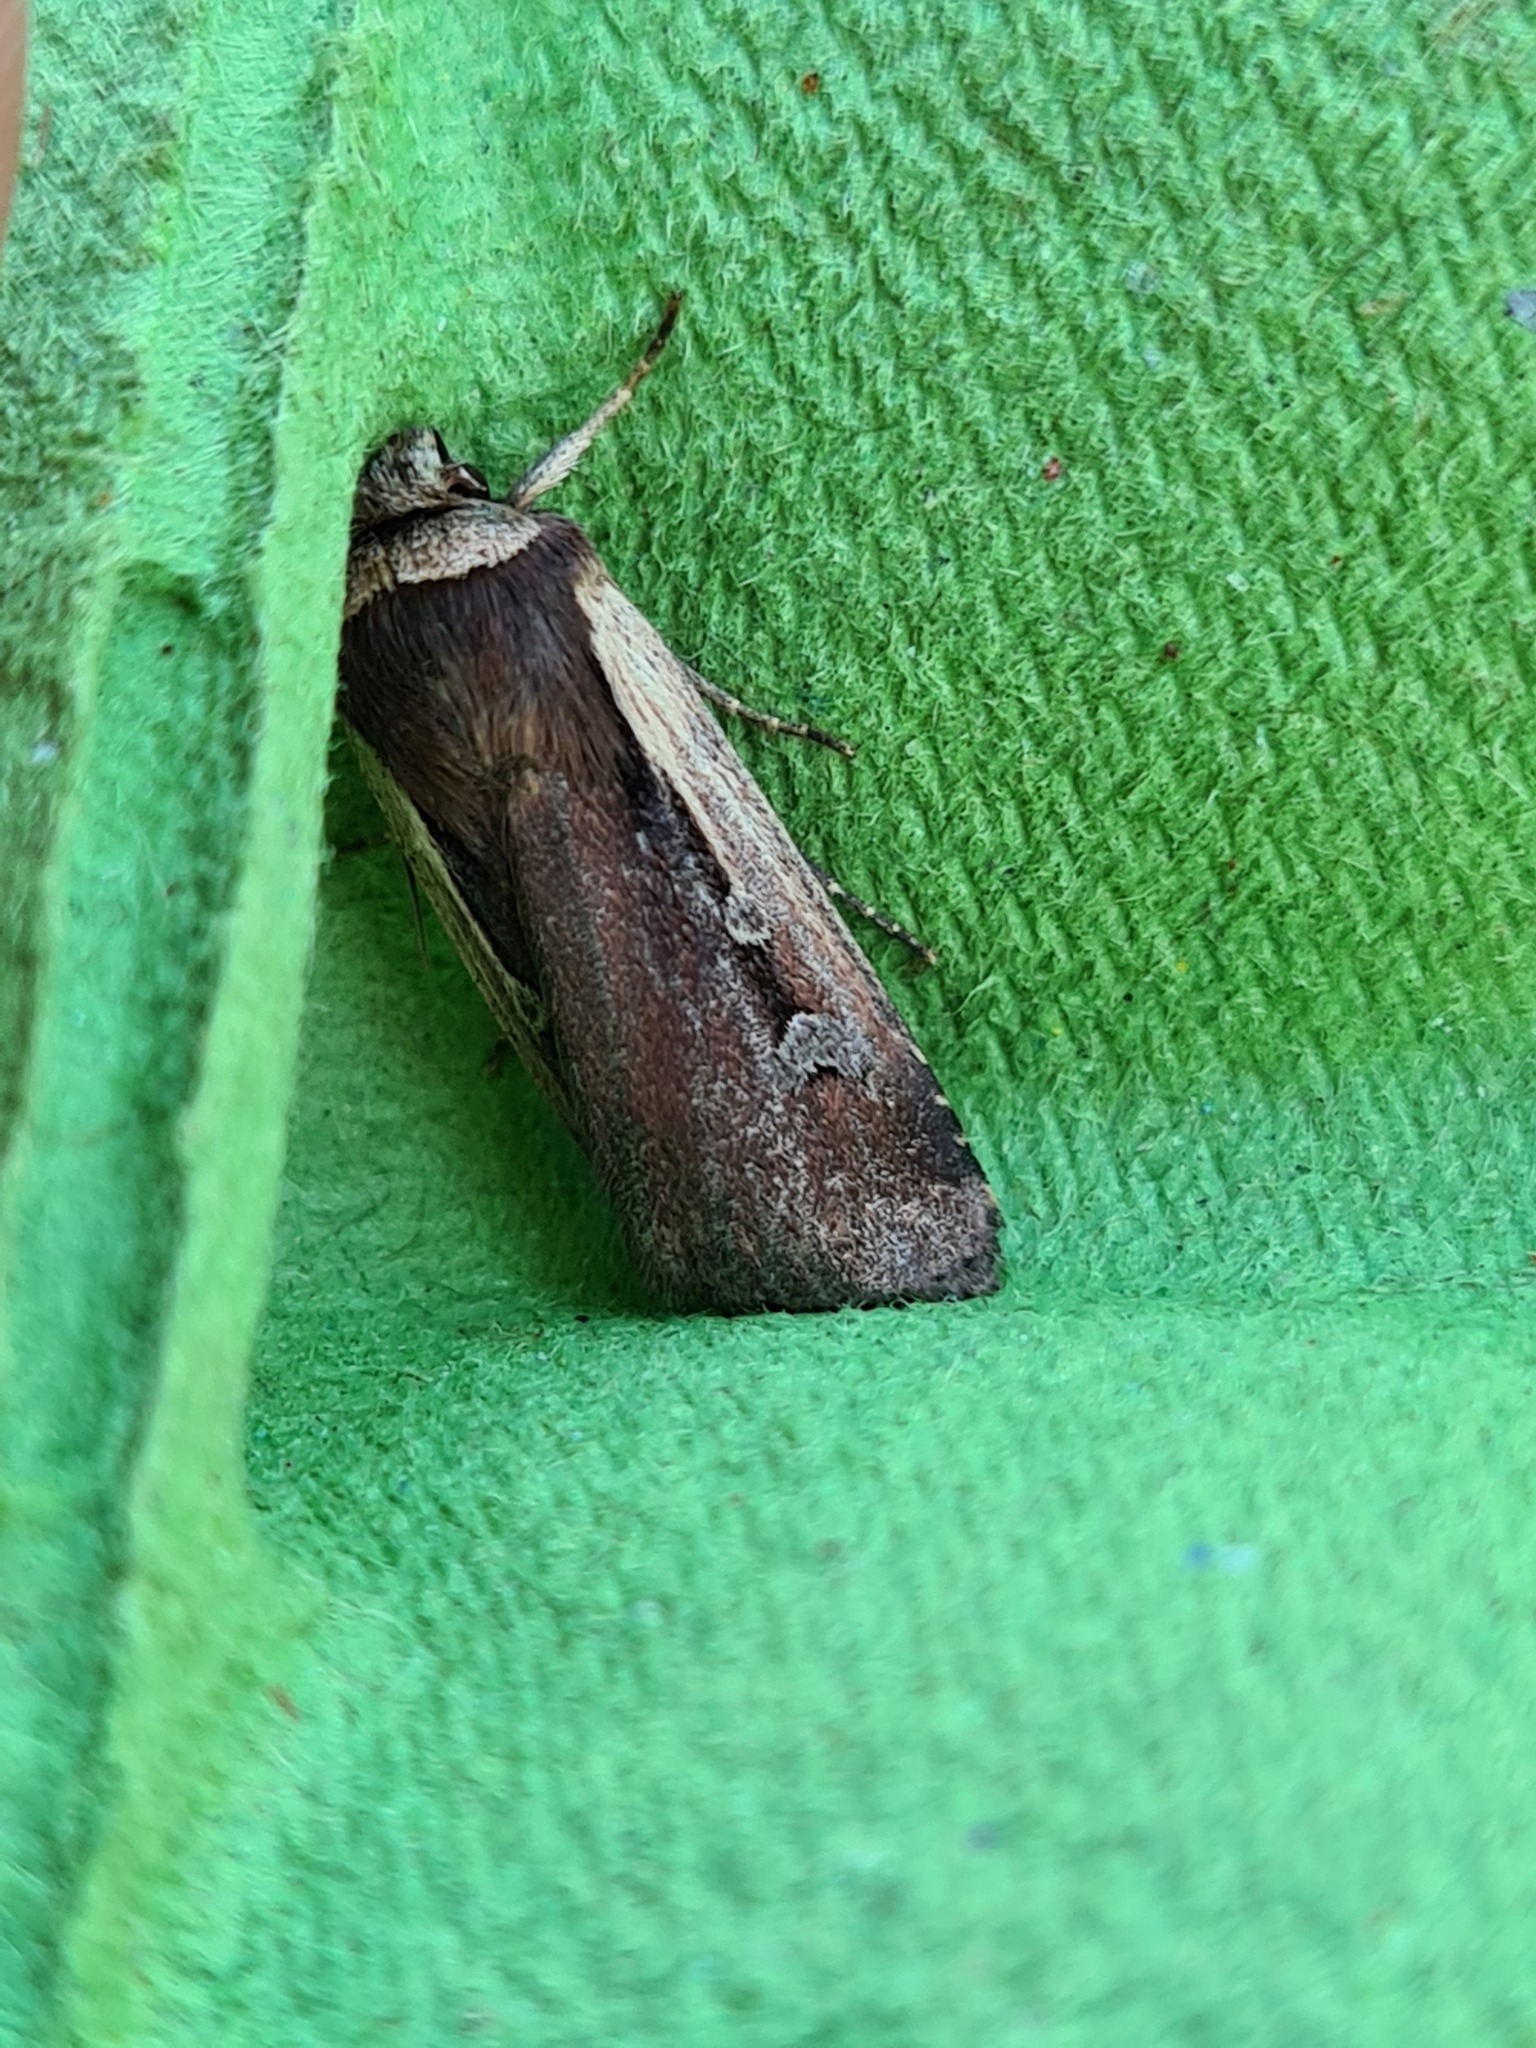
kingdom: Animalia
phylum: Arthropoda
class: Insecta
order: Lepidoptera
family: Noctuidae
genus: Ochropleura
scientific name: Ochropleura plecta
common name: Flame shoulder
